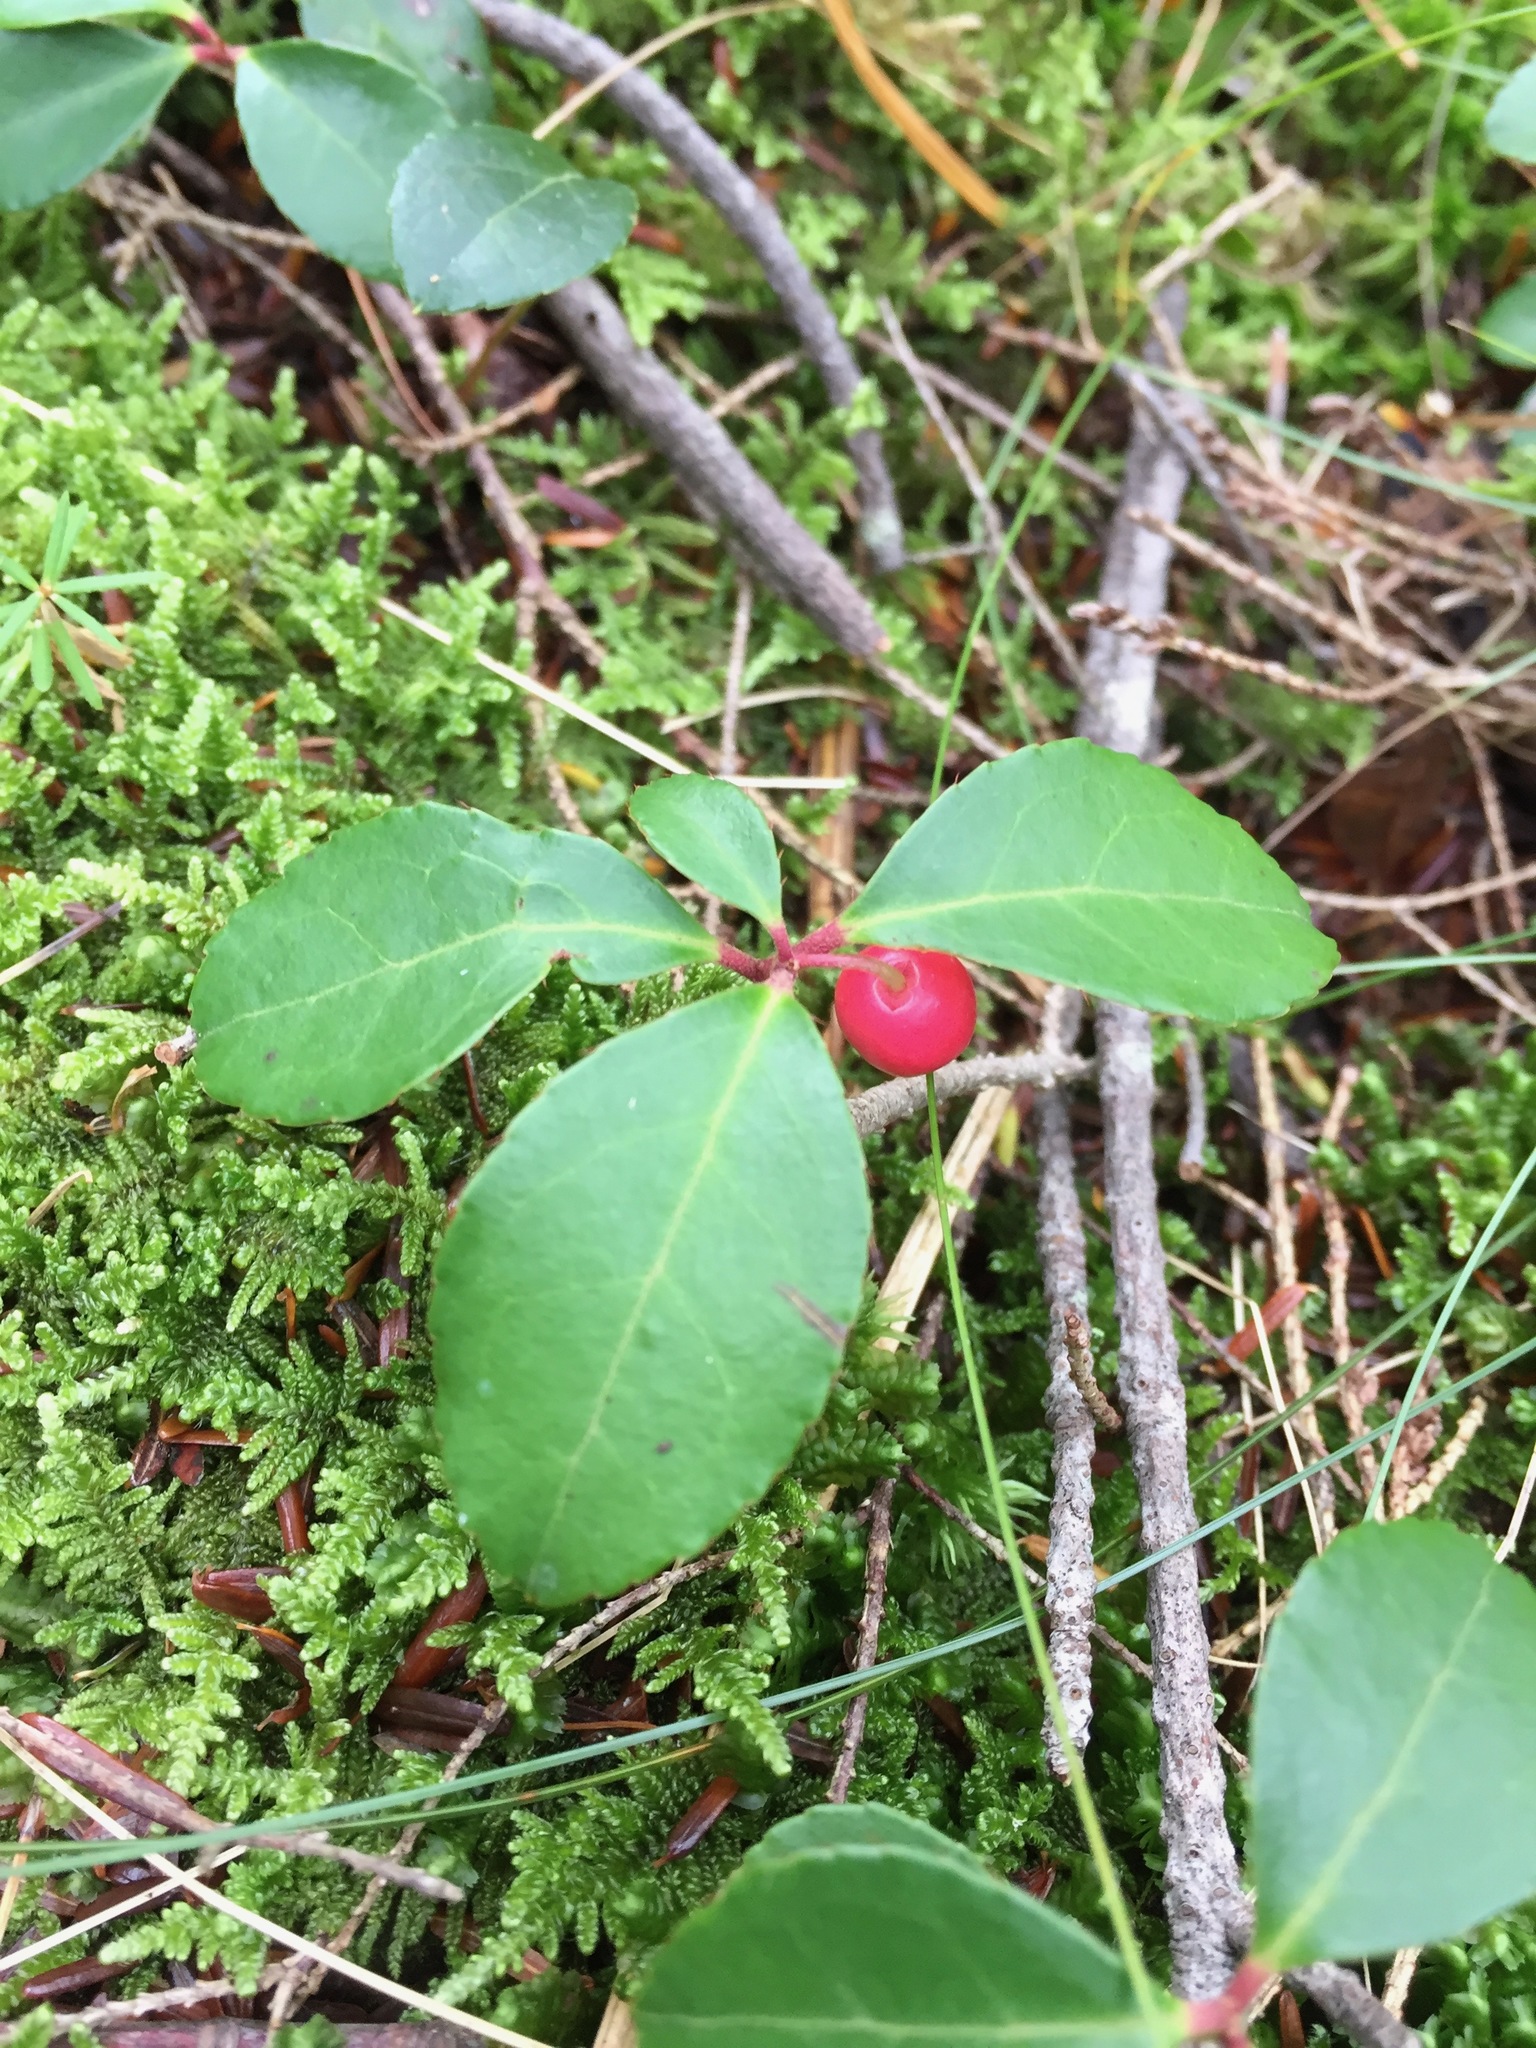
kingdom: Plantae
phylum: Tracheophyta
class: Magnoliopsida
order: Ericales
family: Ericaceae
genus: Gaultheria
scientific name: Gaultheria procumbens
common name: Checkerberry
